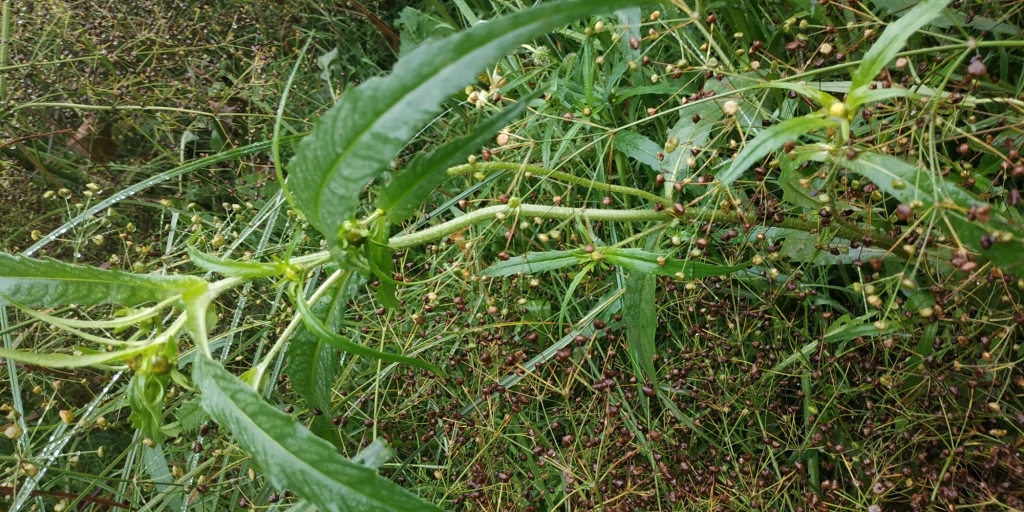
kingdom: Plantae
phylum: Tracheophyta
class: Magnoliopsida
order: Asterales
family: Asteraceae
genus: Bidens
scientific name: Bidens cernua
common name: Nodding bur-marigold
